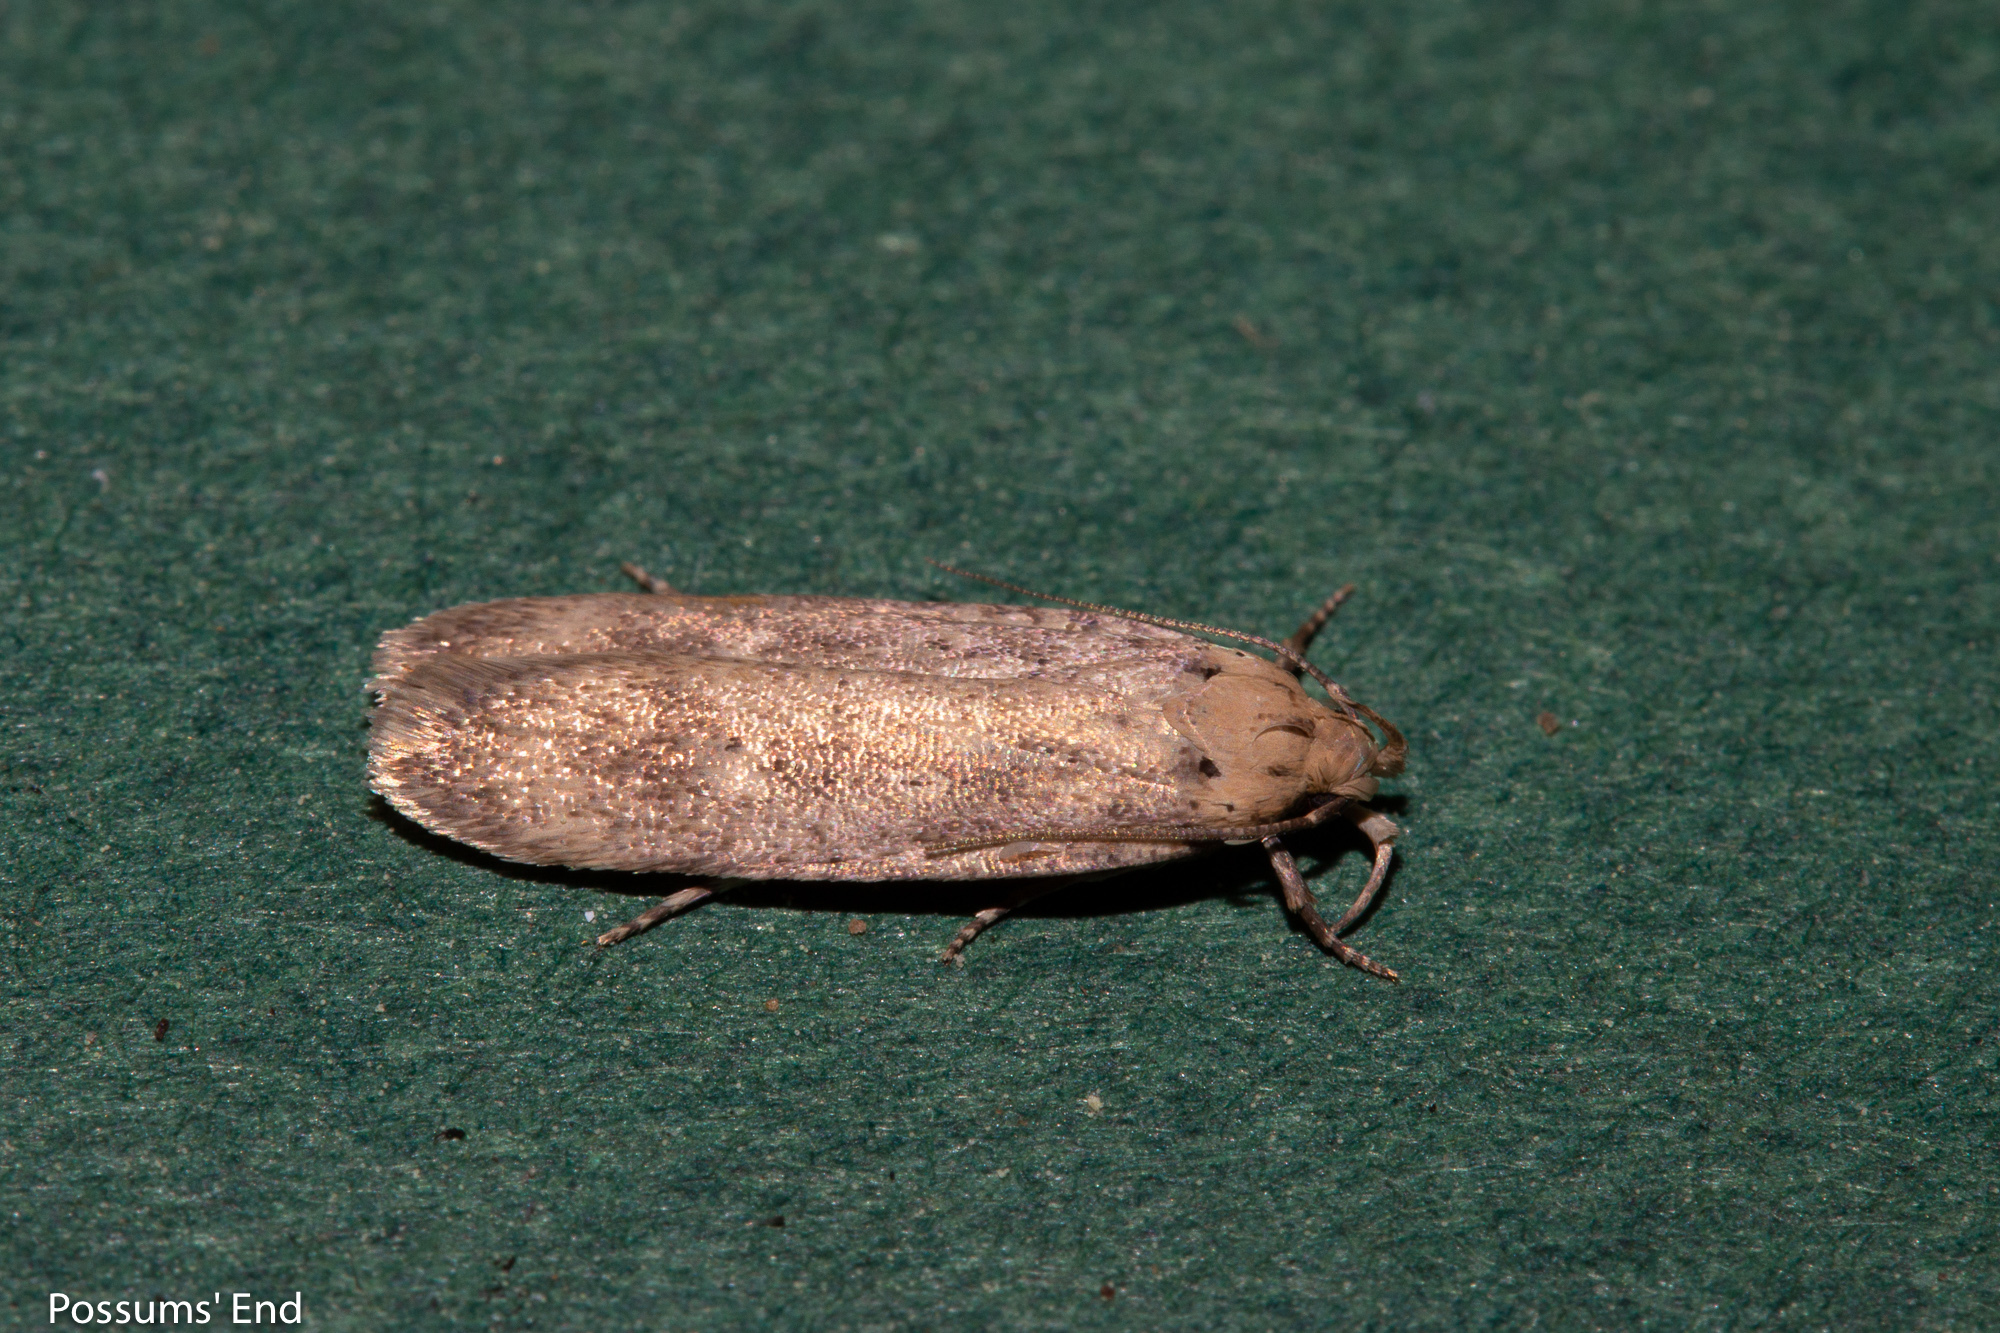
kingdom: Animalia
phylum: Arthropoda
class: Insecta
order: Lepidoptera
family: Gelechiidae
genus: Platyedra
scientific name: Platyedra subcinerea
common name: Moth
